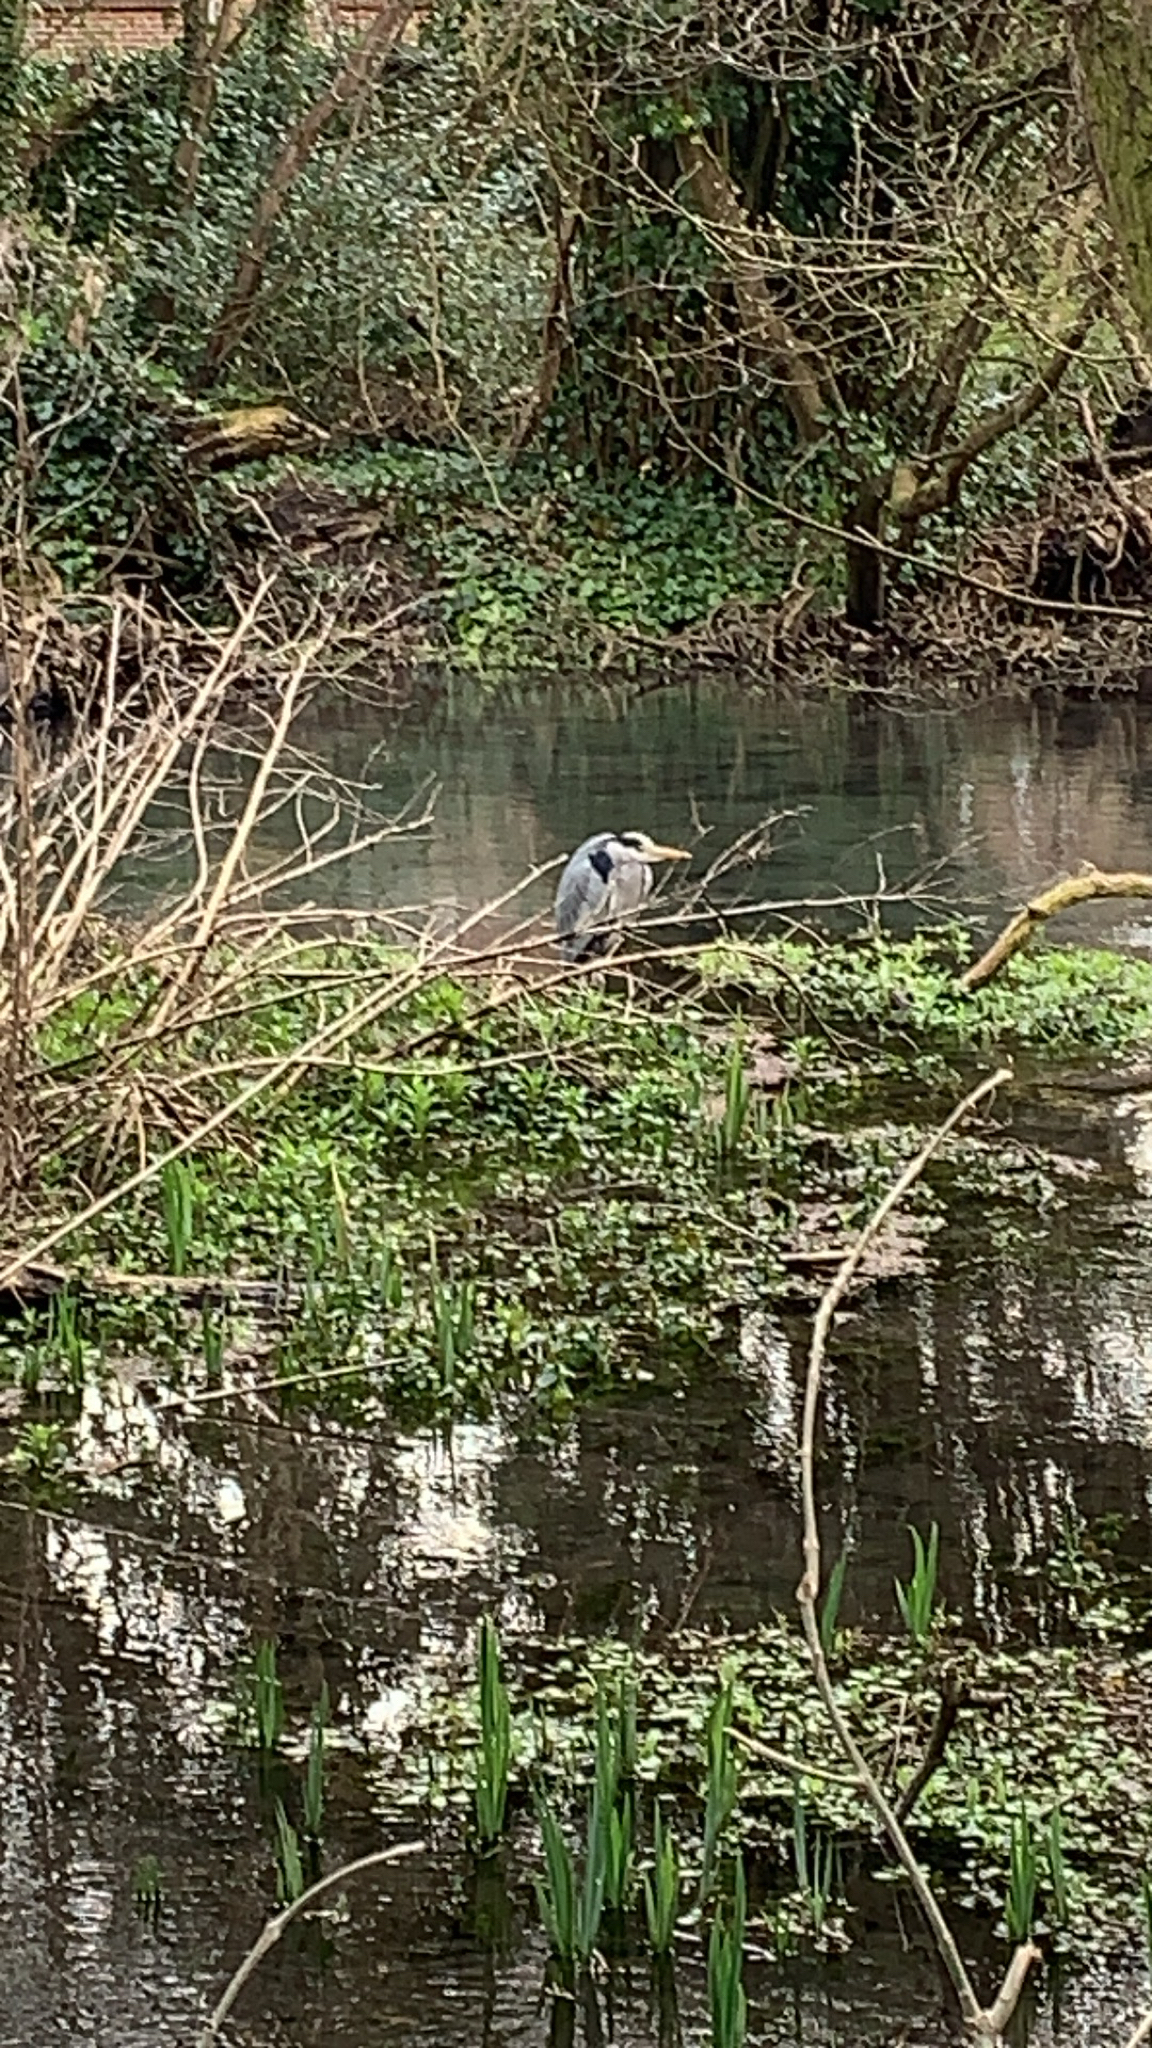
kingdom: Animalia
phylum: Chordata
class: Aves
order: Pelecaniformes
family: Ardeidae
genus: Ardea
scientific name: Ardea cinerea
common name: Grey heron
